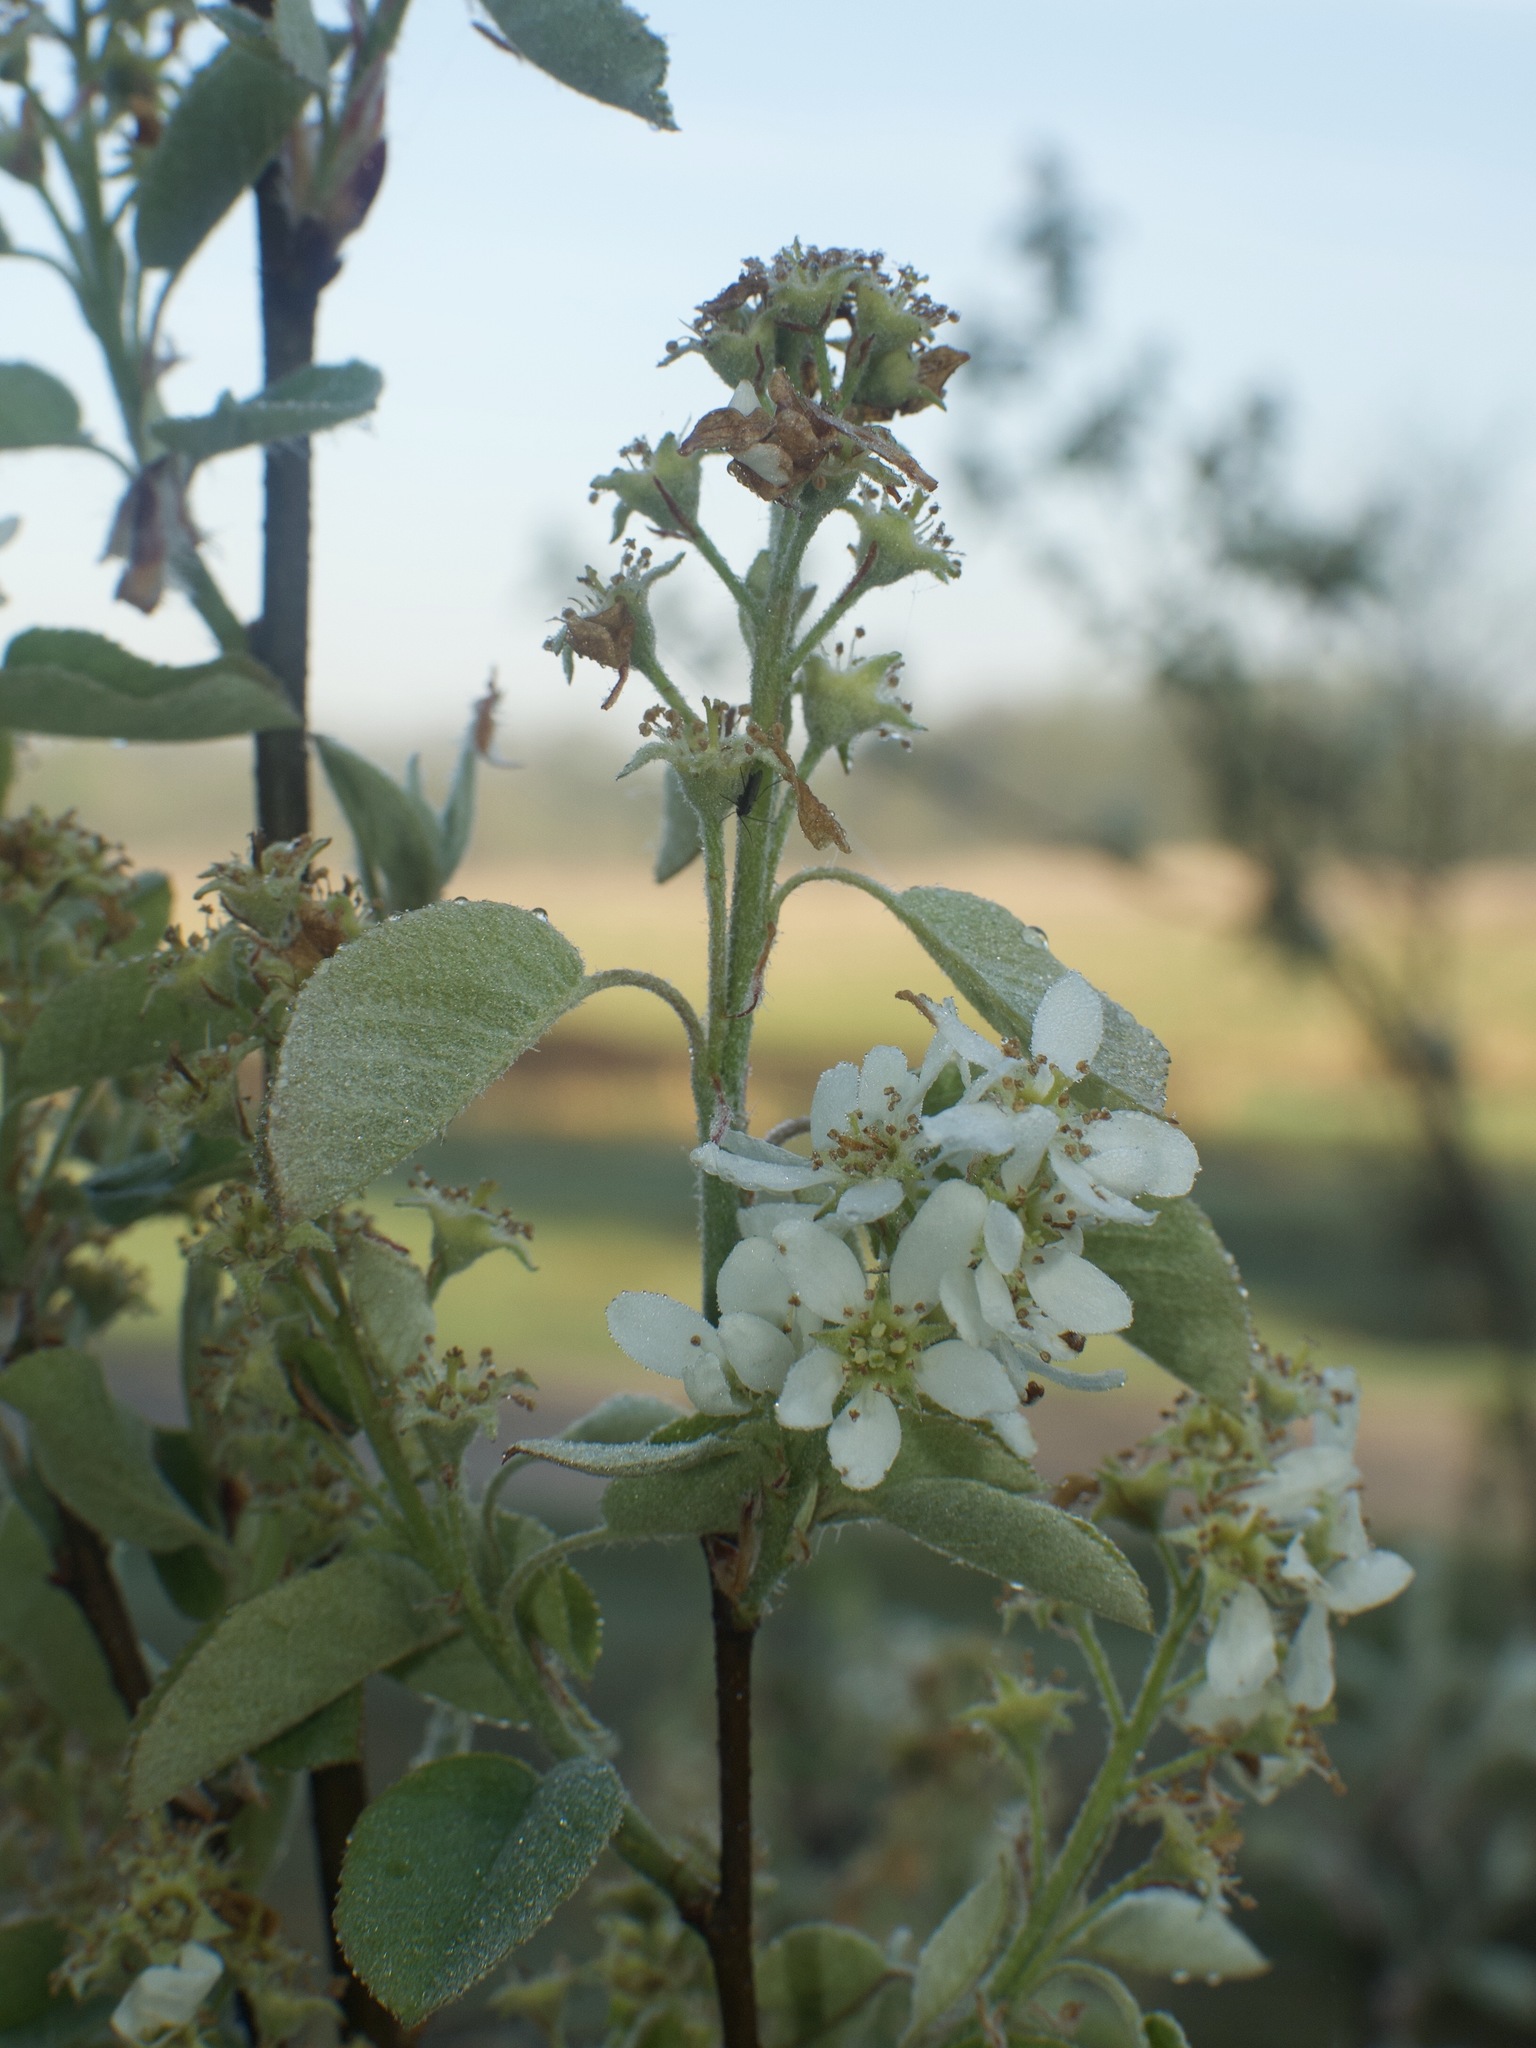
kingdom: Plantae
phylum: Tracheophyta
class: Magnoliopsida
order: Rosales
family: Rosaceae
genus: Amelanchier
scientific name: Amelanchier
